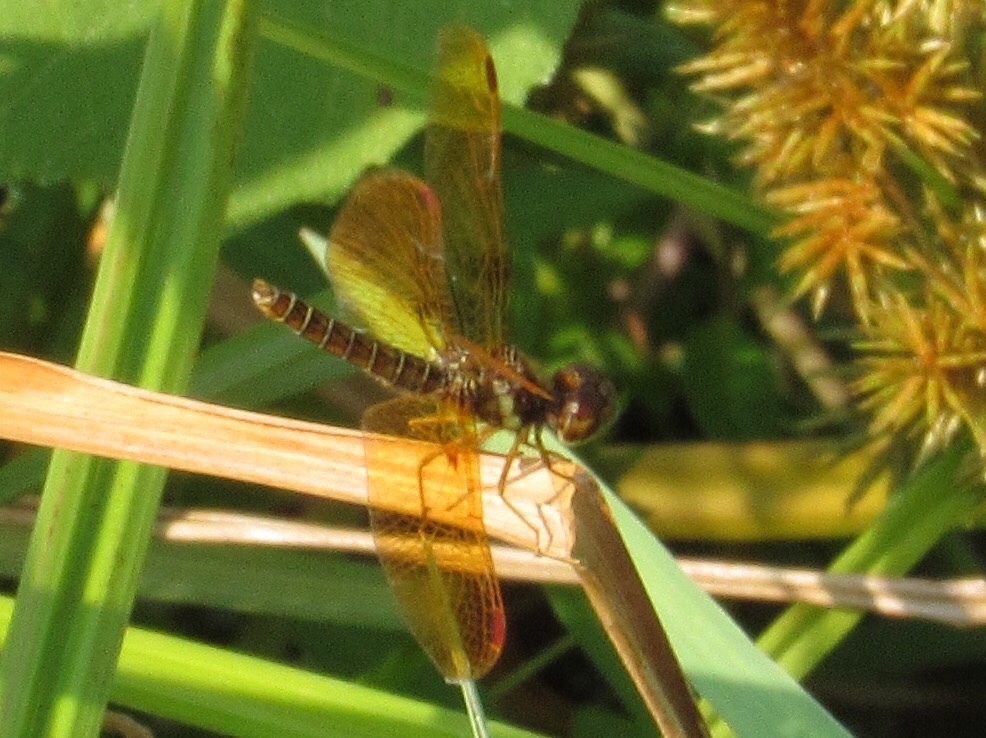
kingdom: Animalia
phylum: Arthropoda
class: Insecta
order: Odonata
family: Libellulidae
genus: Perithemis
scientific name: Perithemis tenera
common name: Eastern amberwing
